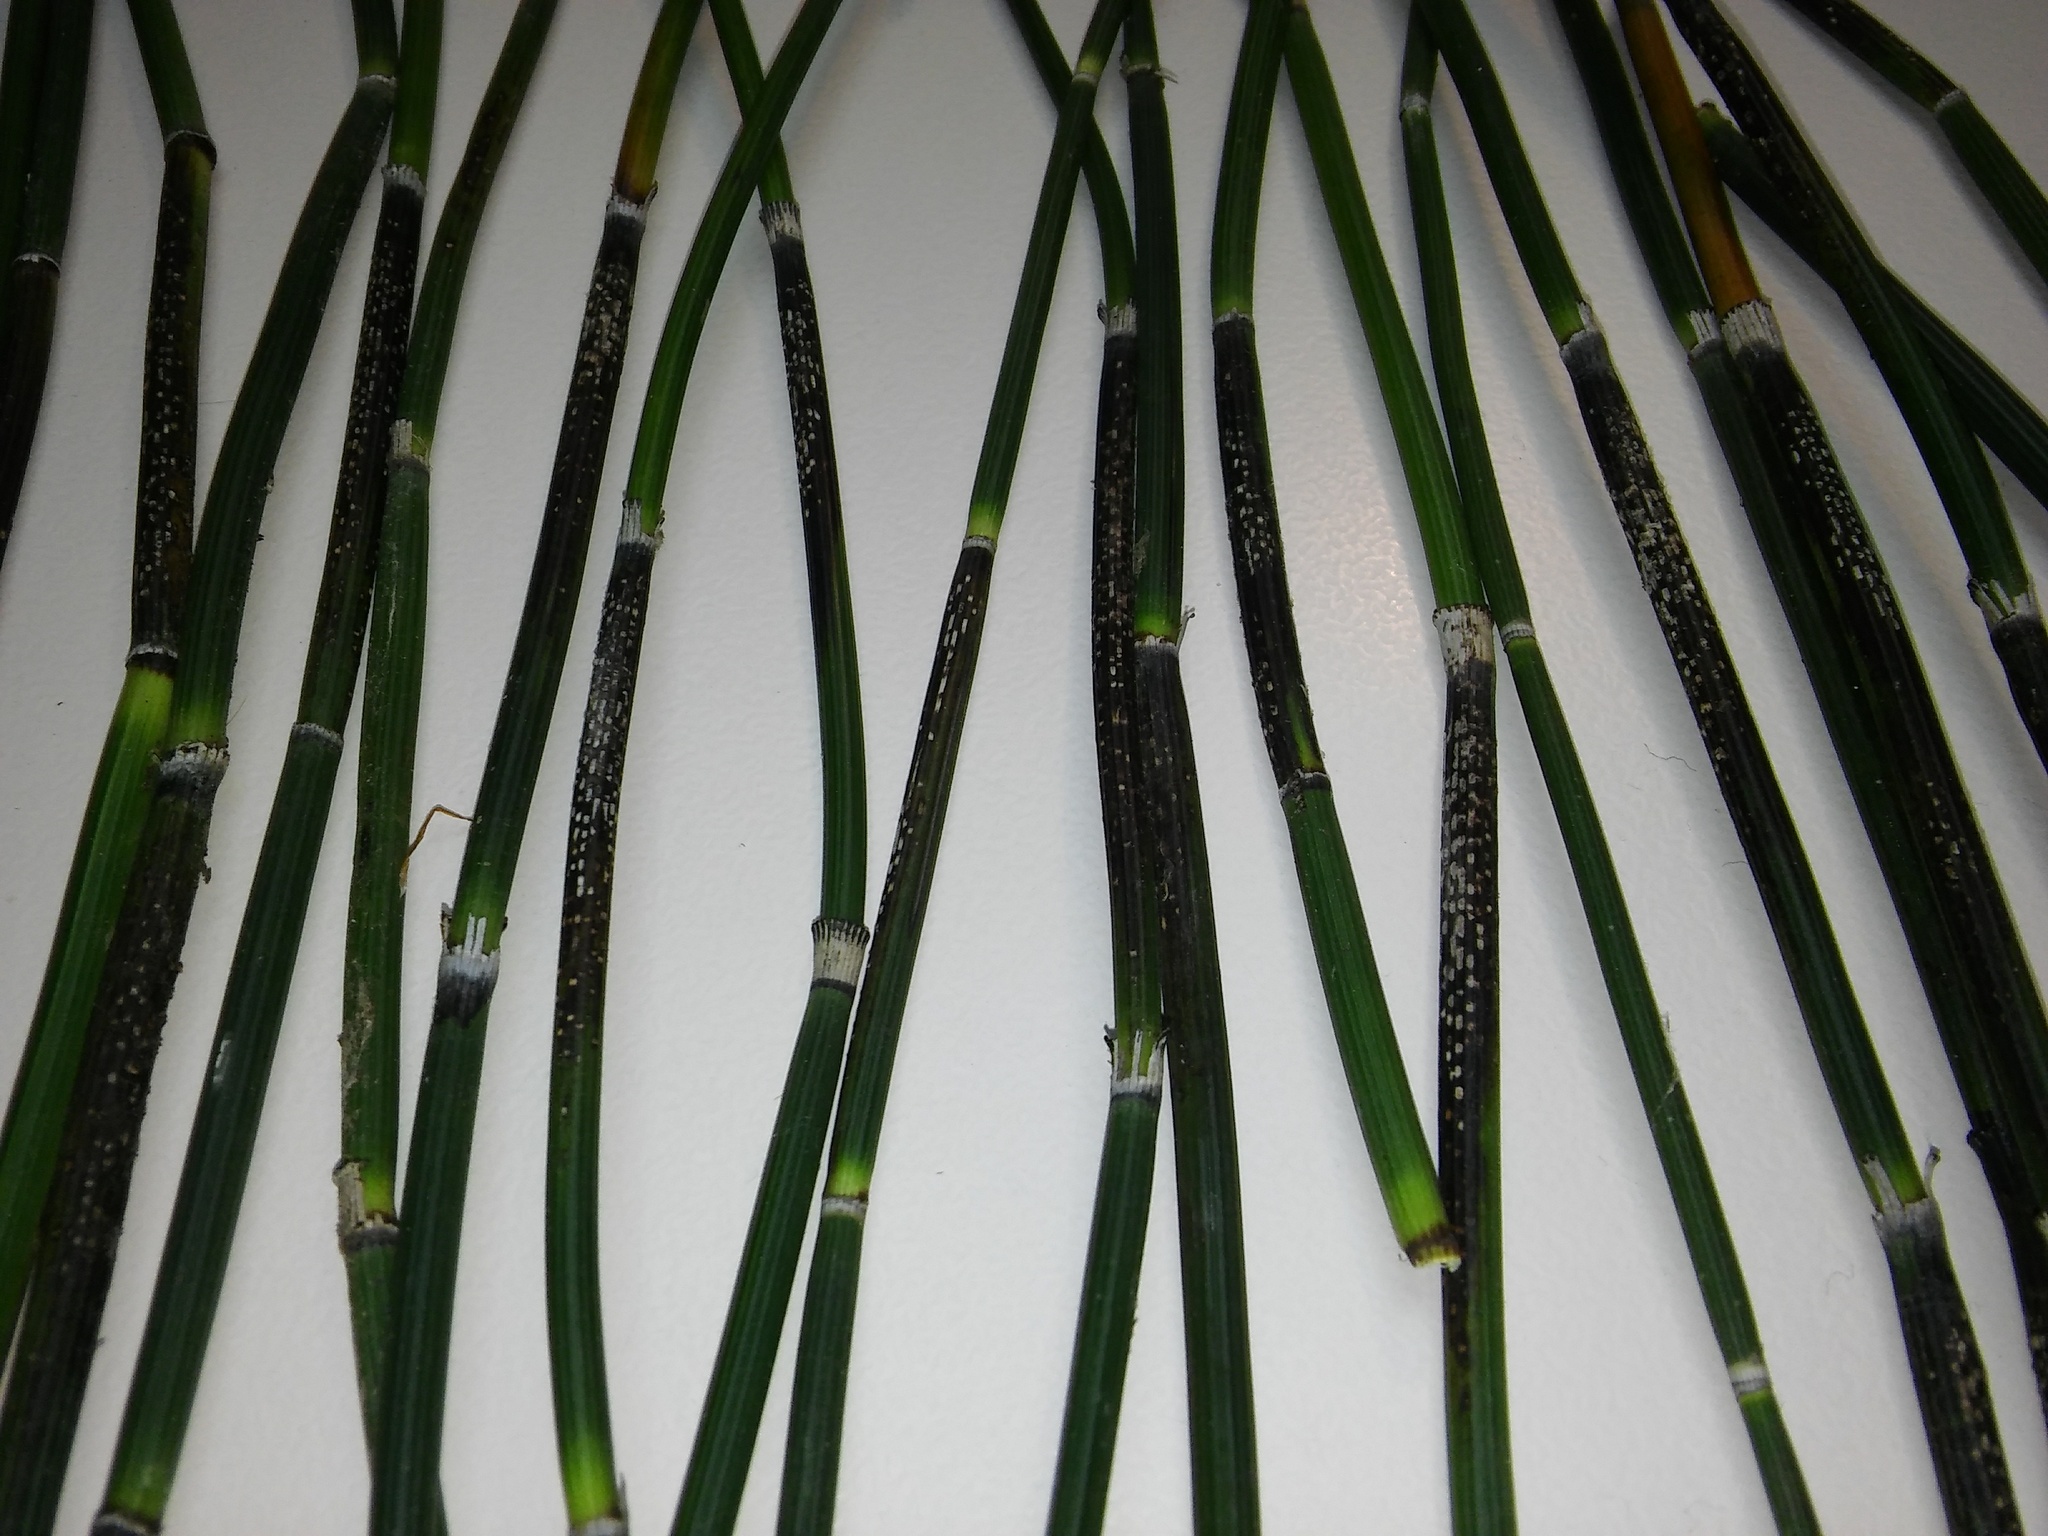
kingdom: Plantae
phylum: Tracheophyta
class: Polypodiopsida
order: Equisetales
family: Equisetaceae
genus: Equisetum
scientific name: Equisetum hyemale
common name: Rough horsetail
